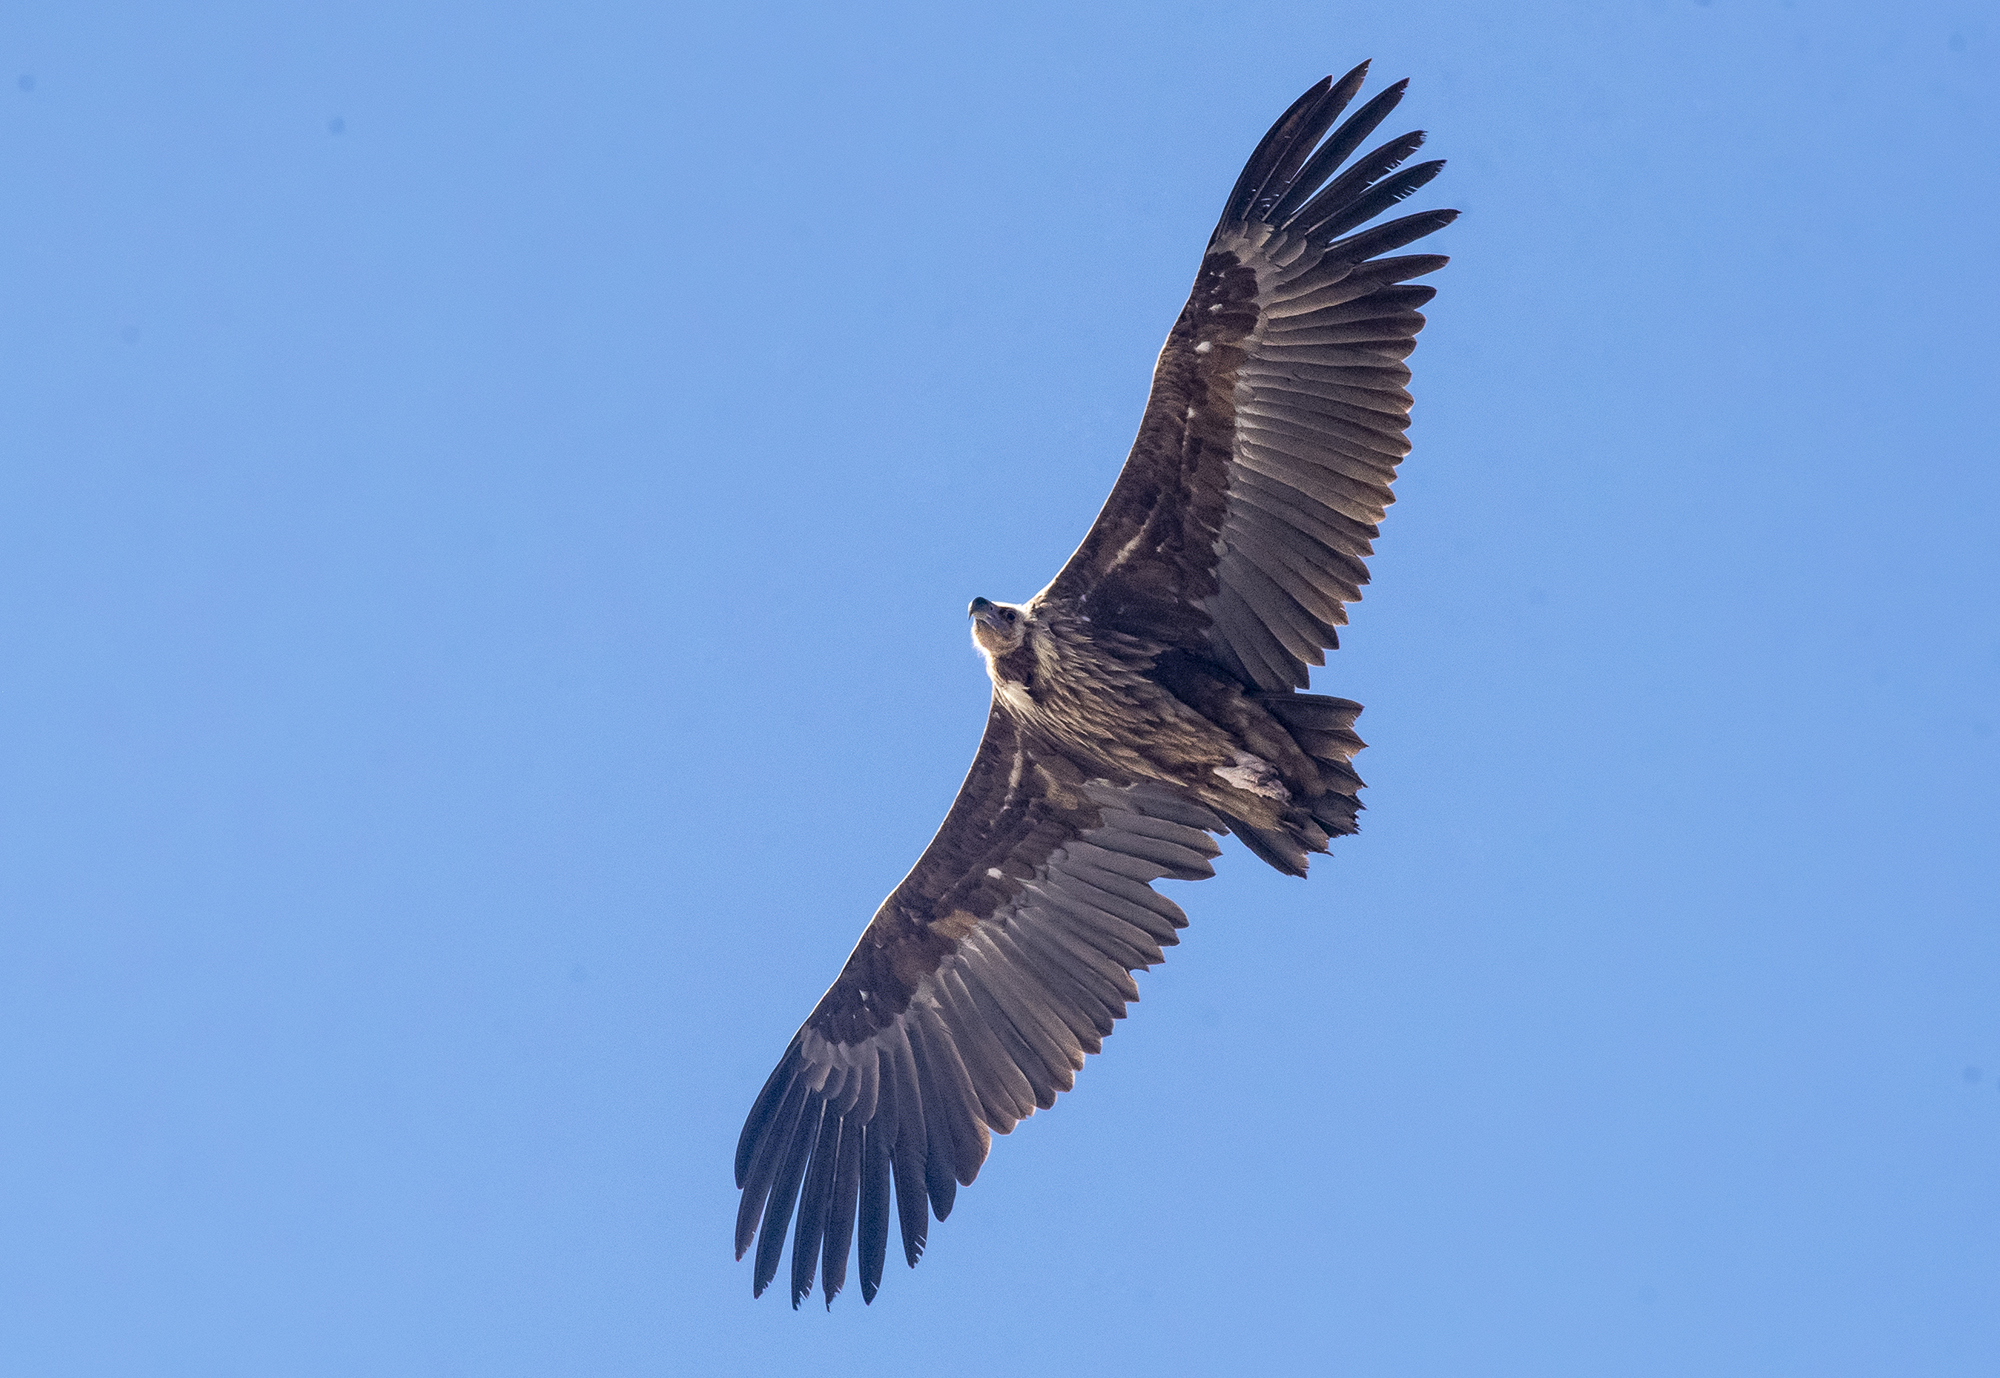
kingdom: Animalia
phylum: Chordata
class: Aves
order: Accipitriformes
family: Accipitridae
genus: Aegypius
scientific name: Aegypius monachus
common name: Cinereous vulture
